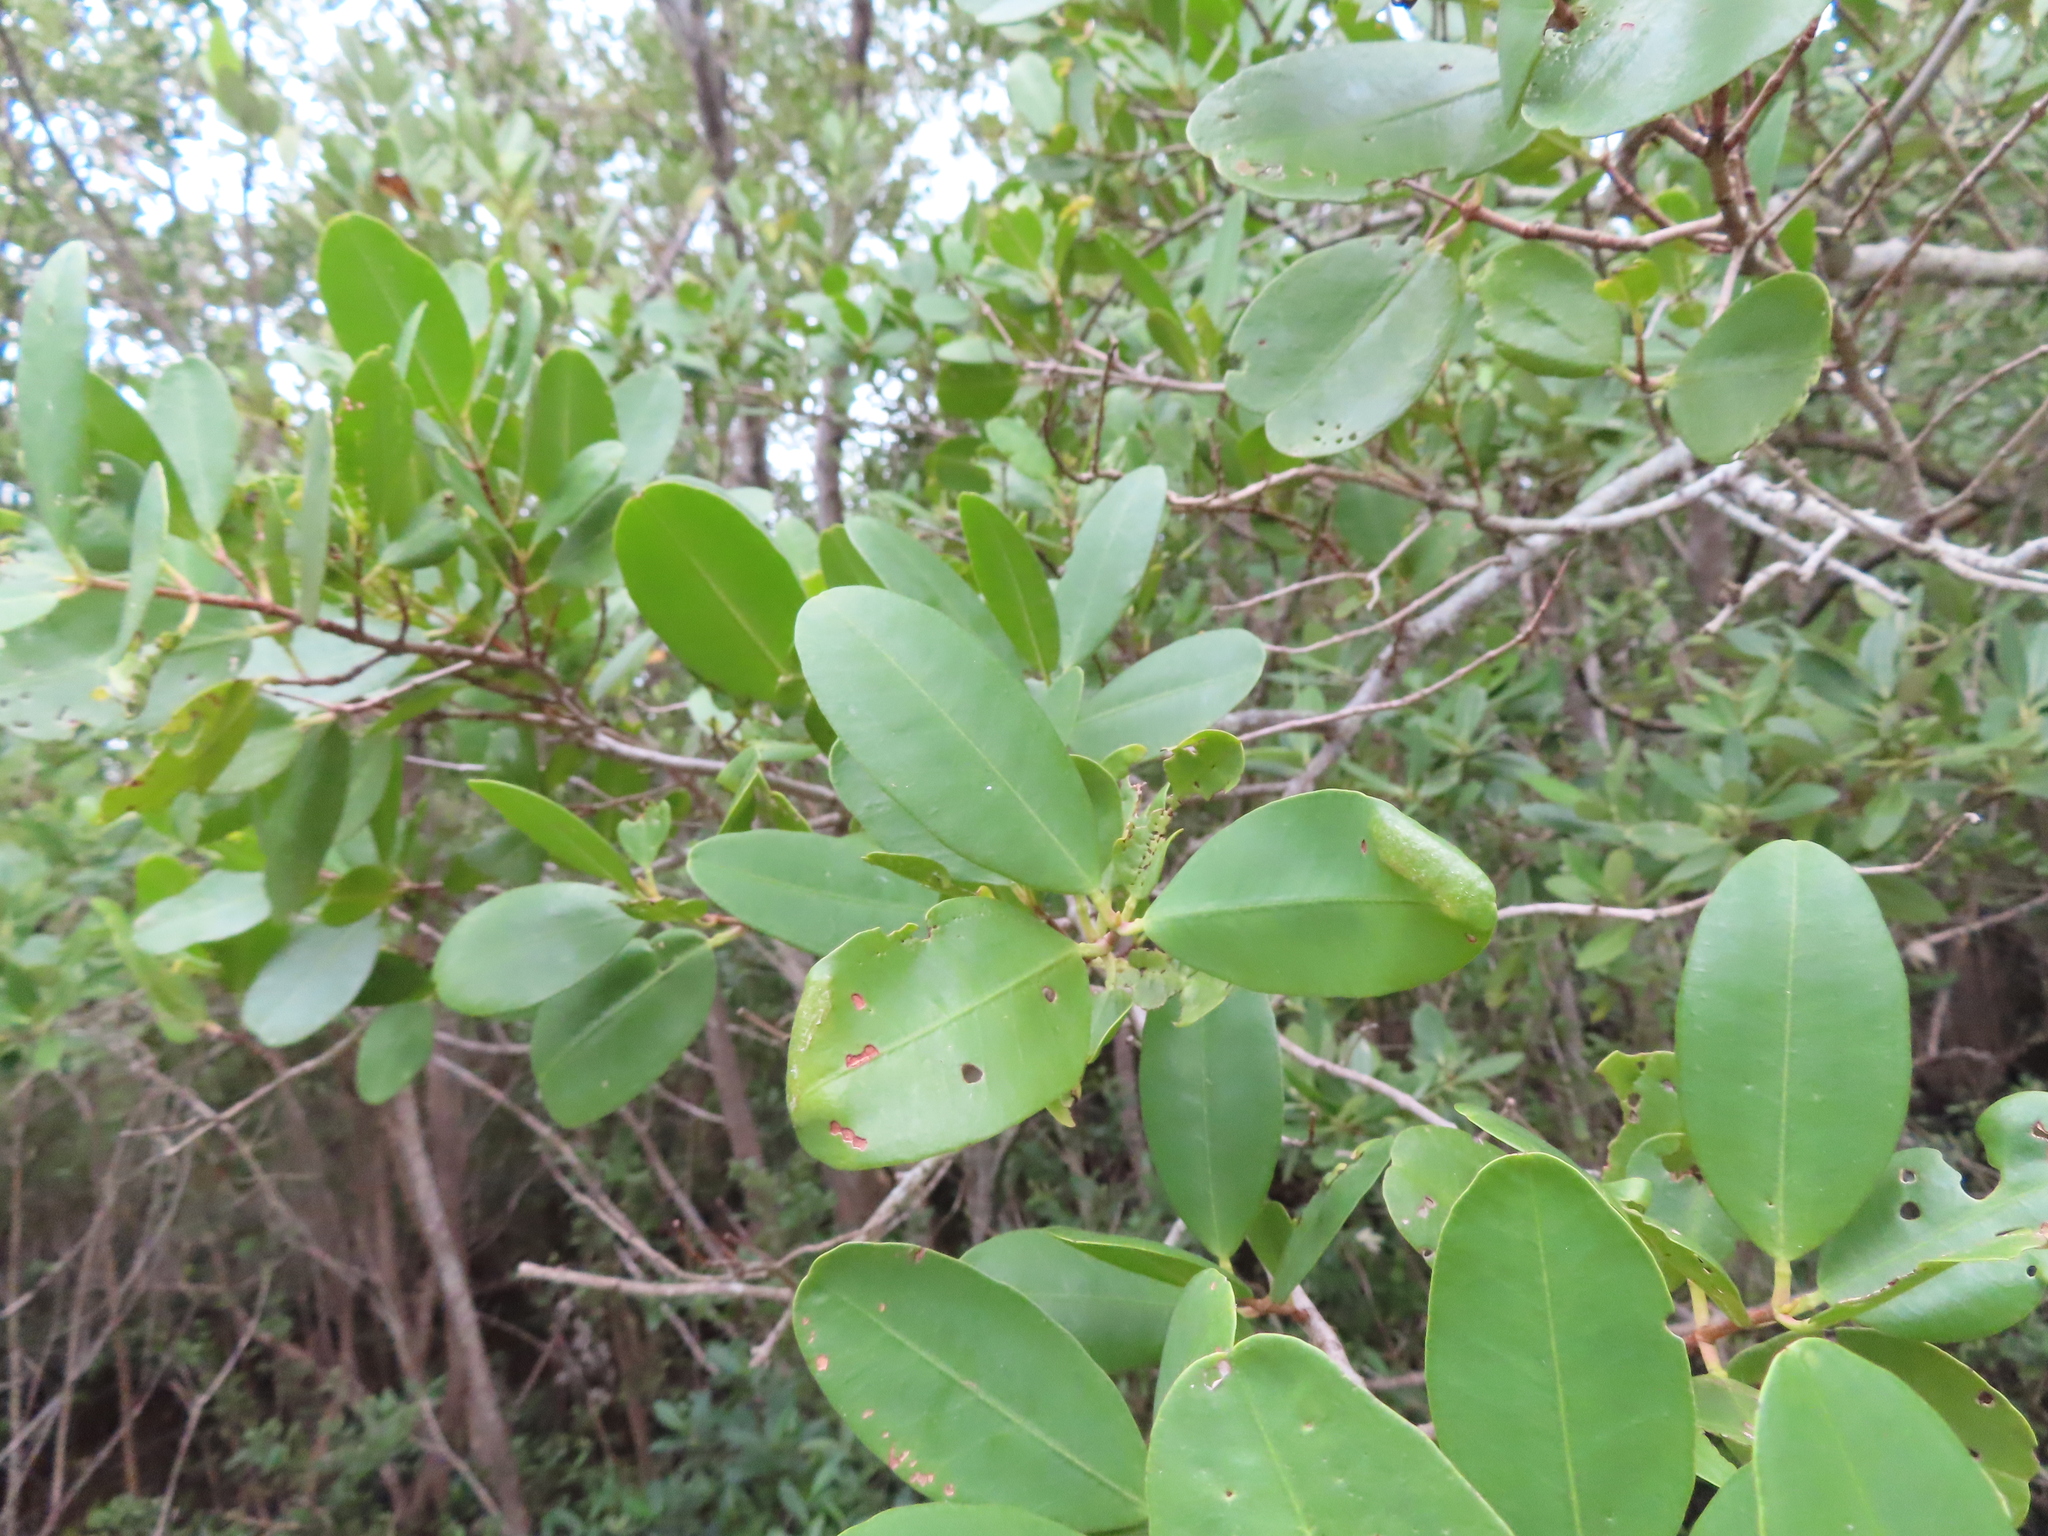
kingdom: Plantae
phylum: Tracheophyta
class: Magnoliopsida
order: Myrtales
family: Combretaceae
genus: Laguncularia
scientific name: Laguncularia racemosa
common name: White mangrove
